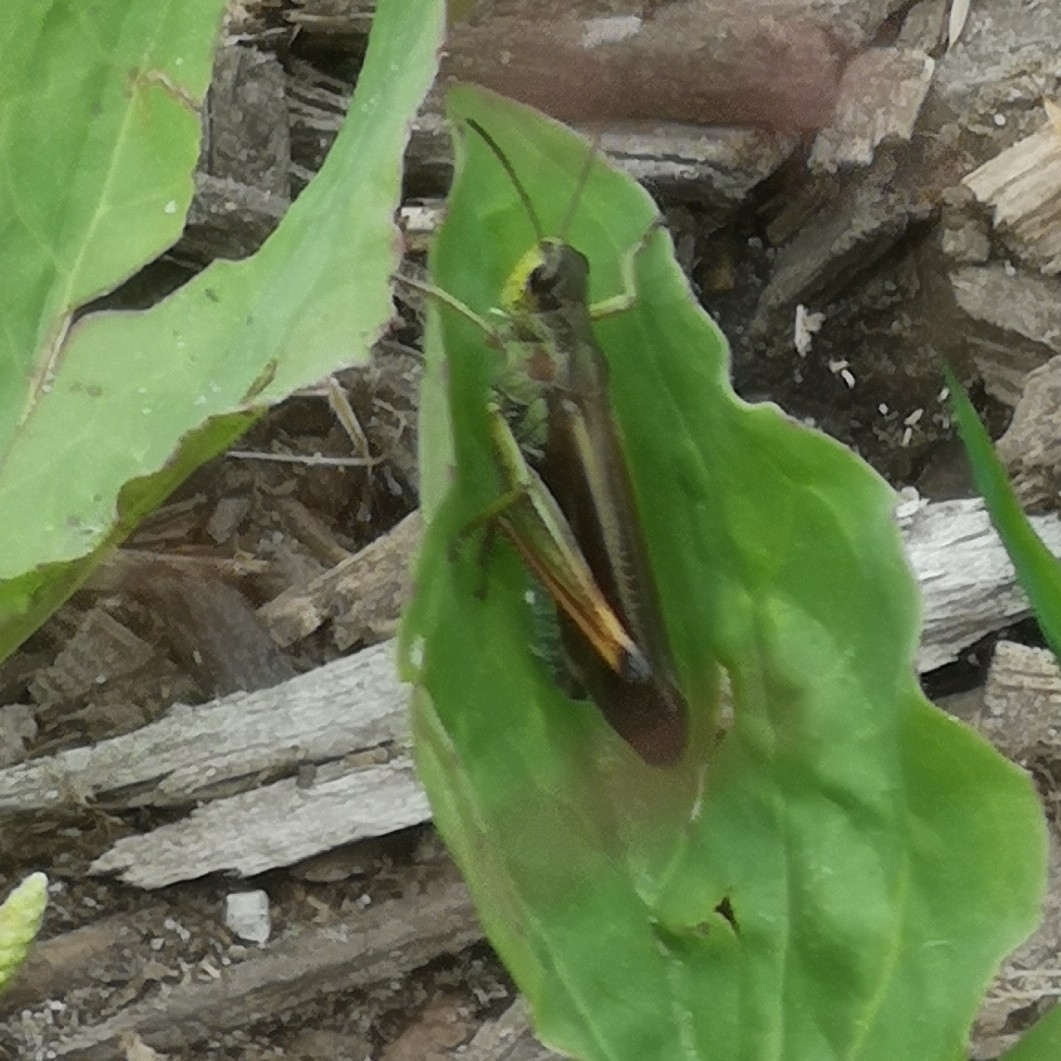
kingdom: Animalia
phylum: Arthropoda
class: Insecta
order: Orthoptera
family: Acrididae
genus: Stauroderus
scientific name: Stauroderus scalaris
